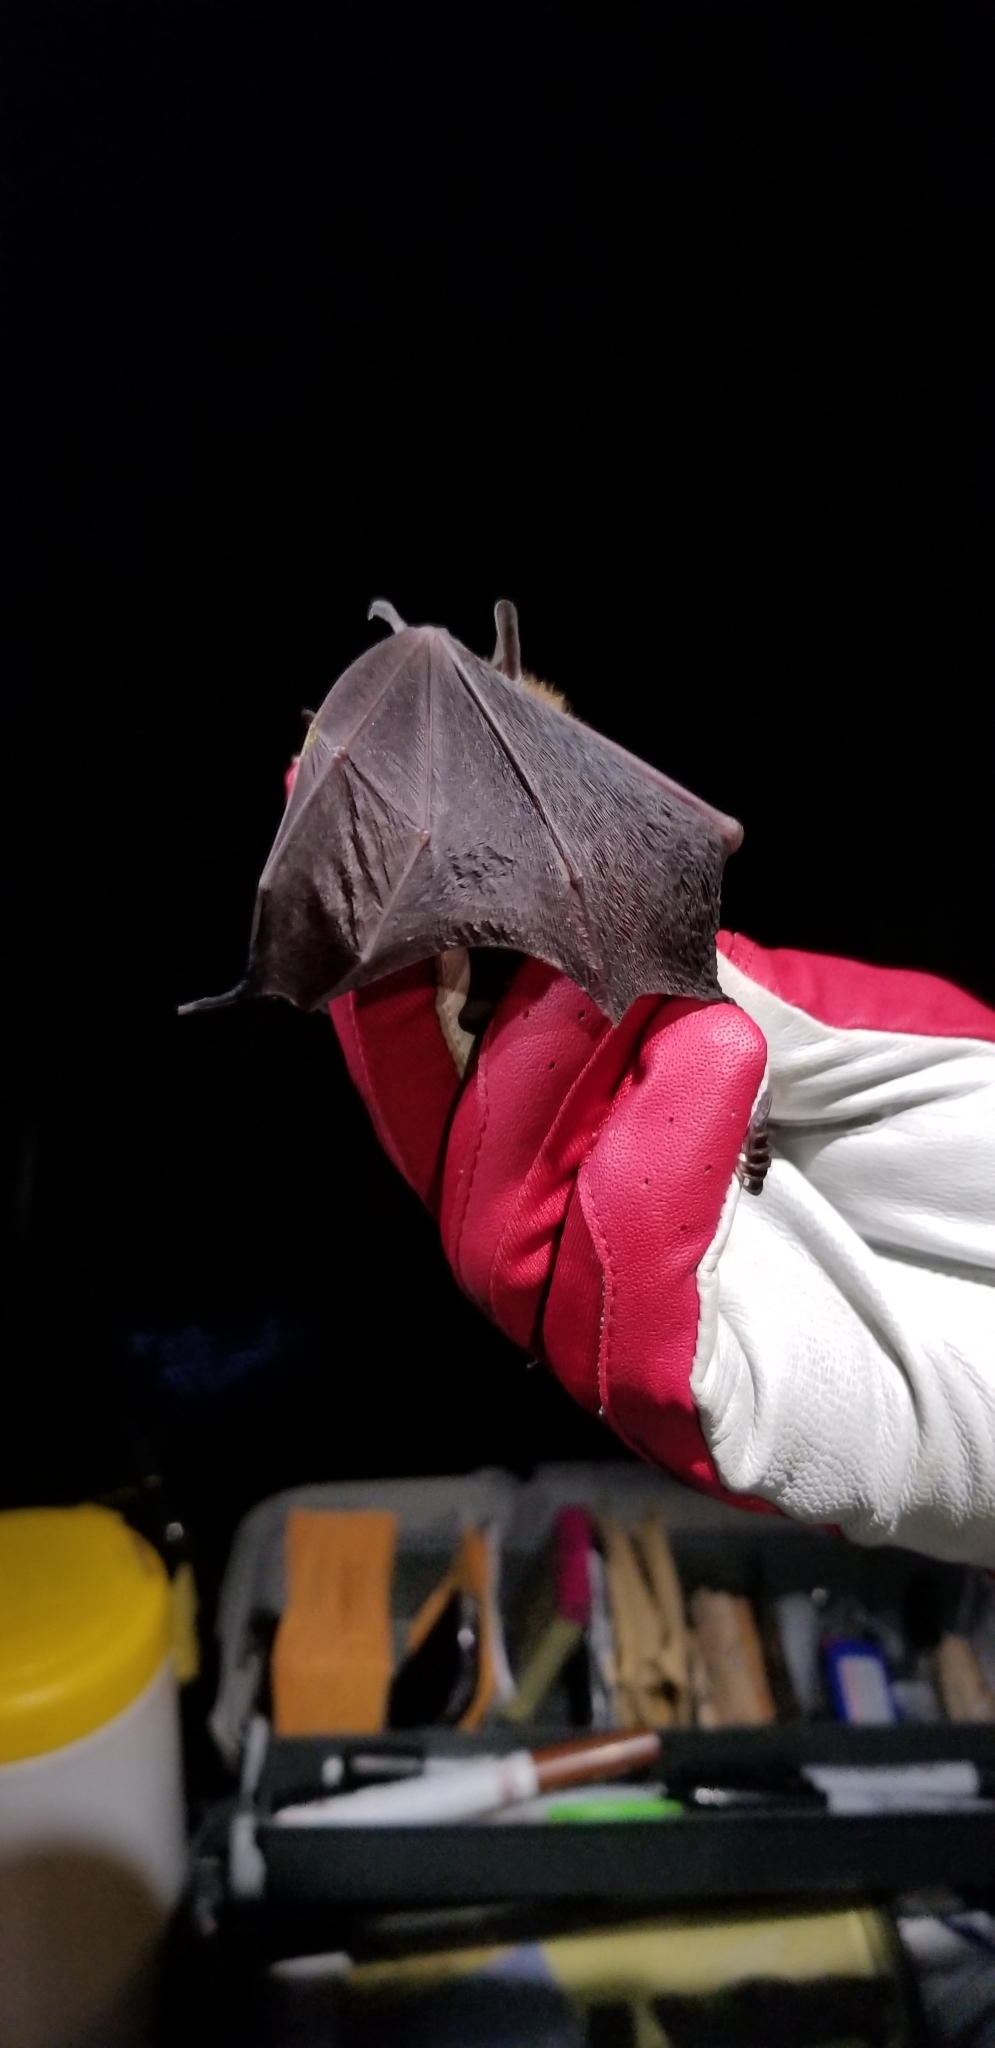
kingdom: Animalia
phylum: Chordata
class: Mammalia
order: Chiroptera
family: Vespertilionidae
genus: Eptesicus
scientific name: Eptesicus fuscus
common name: Big brown bat
